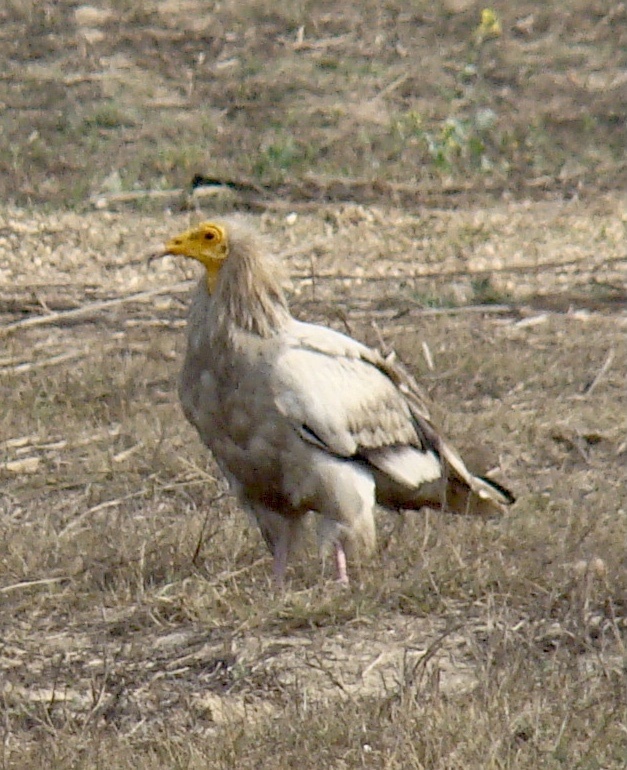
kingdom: Animalia
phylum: Chordata
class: Aves
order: Accipitriformes
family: Accipitridae
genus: Neophron
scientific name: Neophron percnopterus
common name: Egyptian vulture
